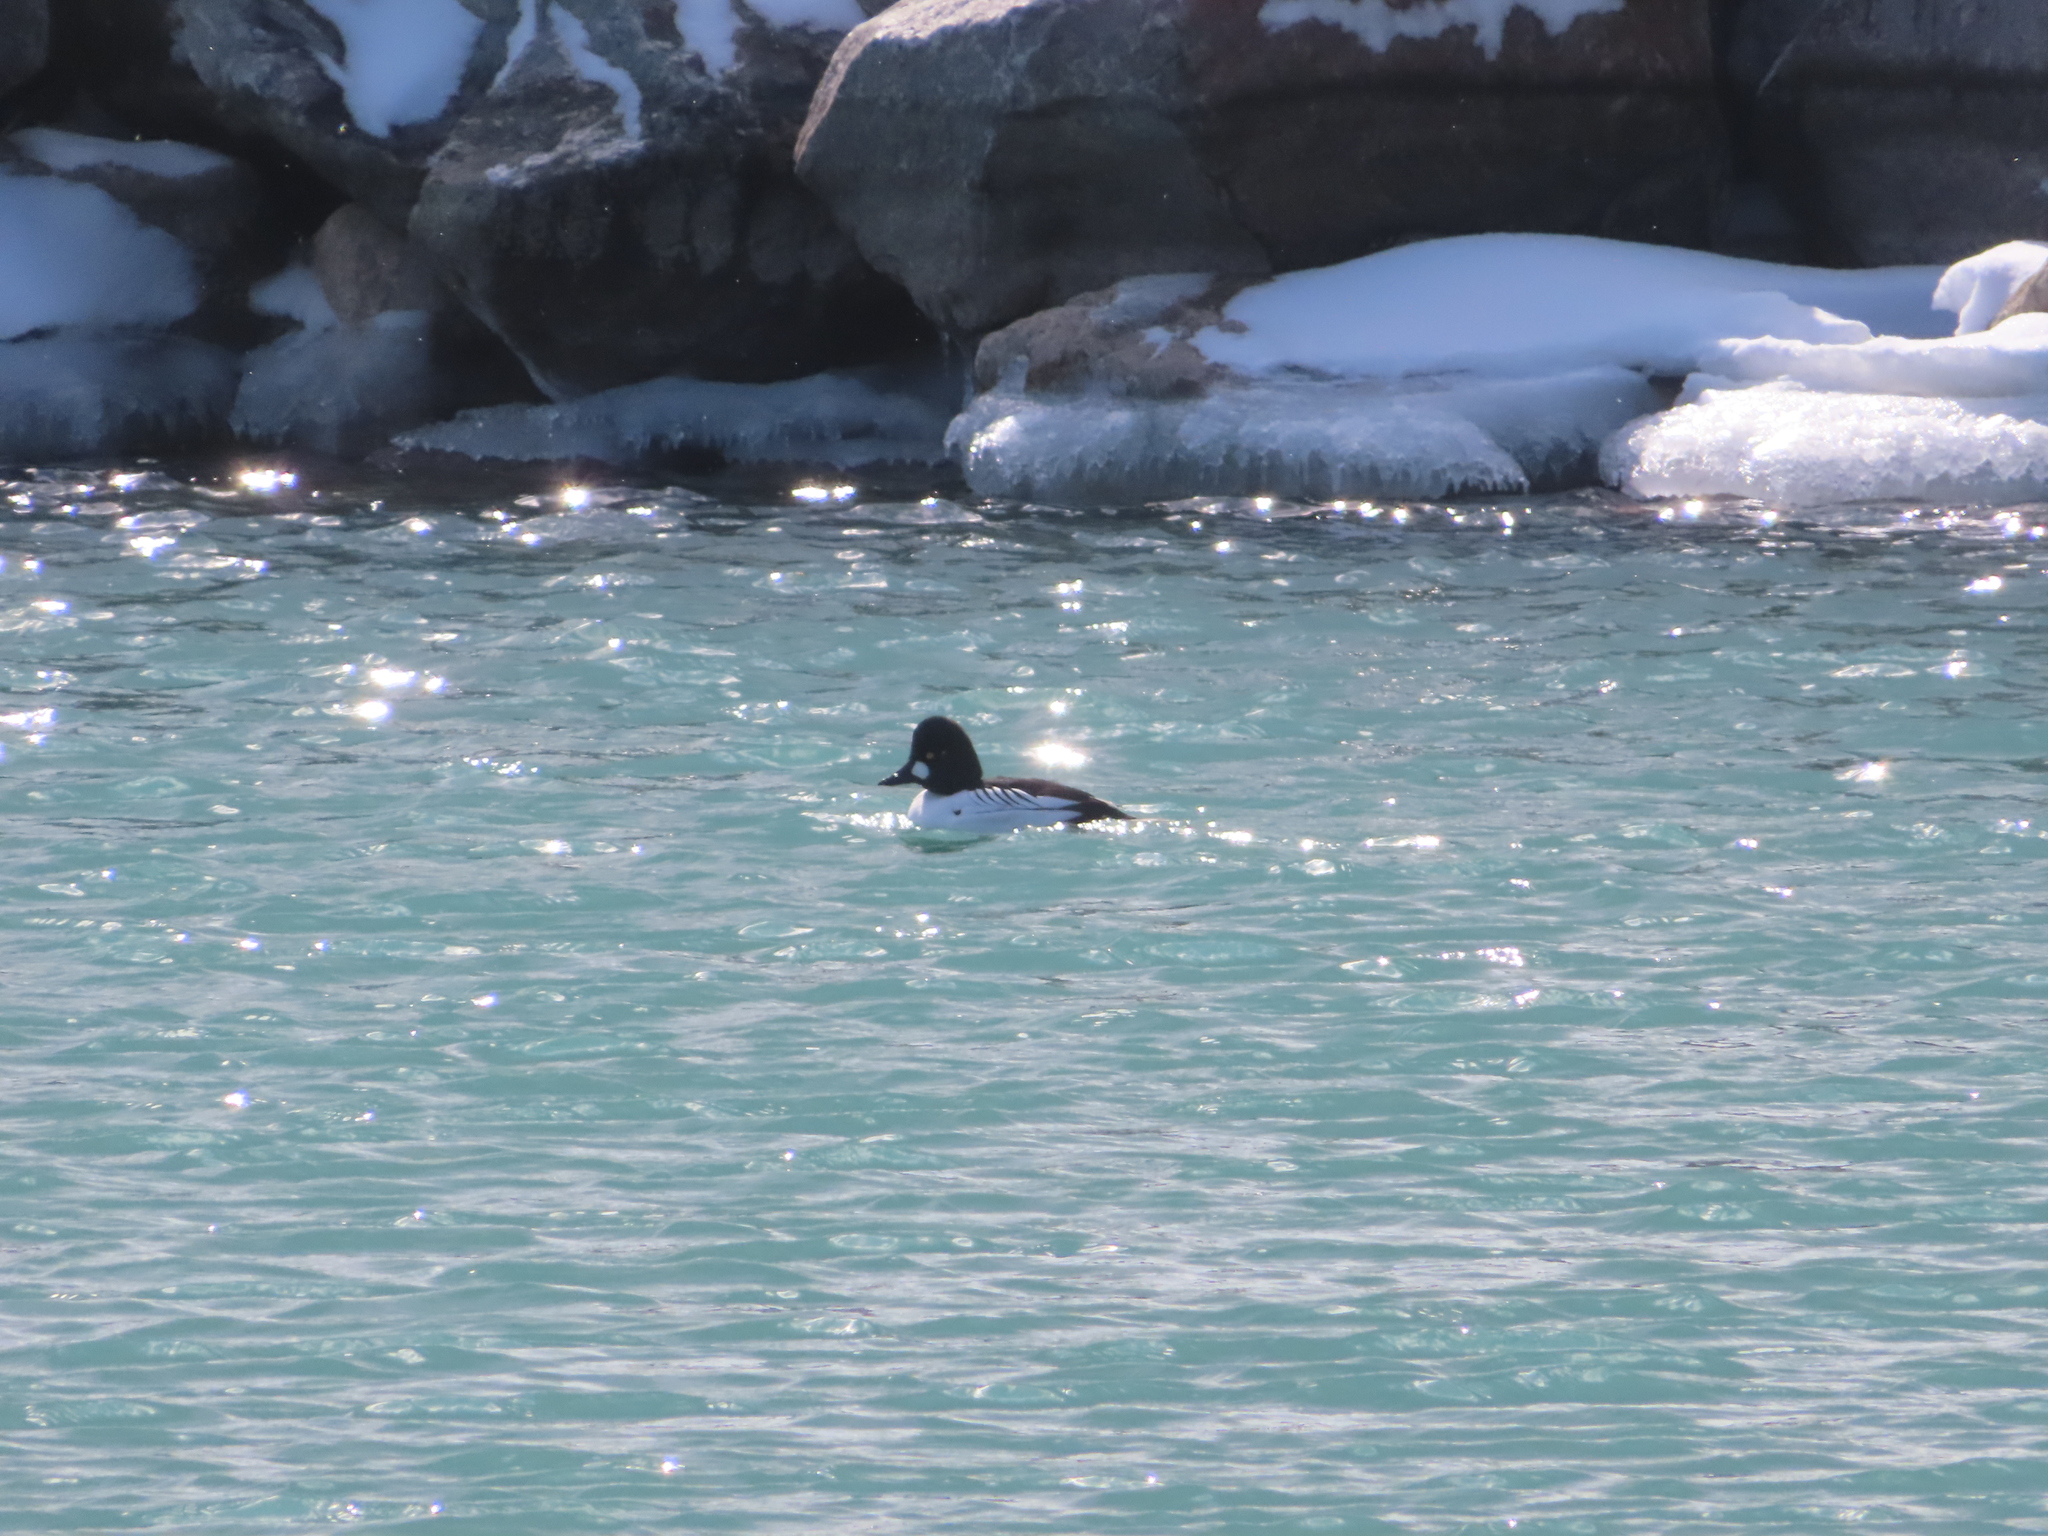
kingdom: Animalia
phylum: Chordata
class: Aves
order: Anseriformes
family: Anatidae
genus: Bucephala
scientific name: Bucephala clangula
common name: Common goldeneye
